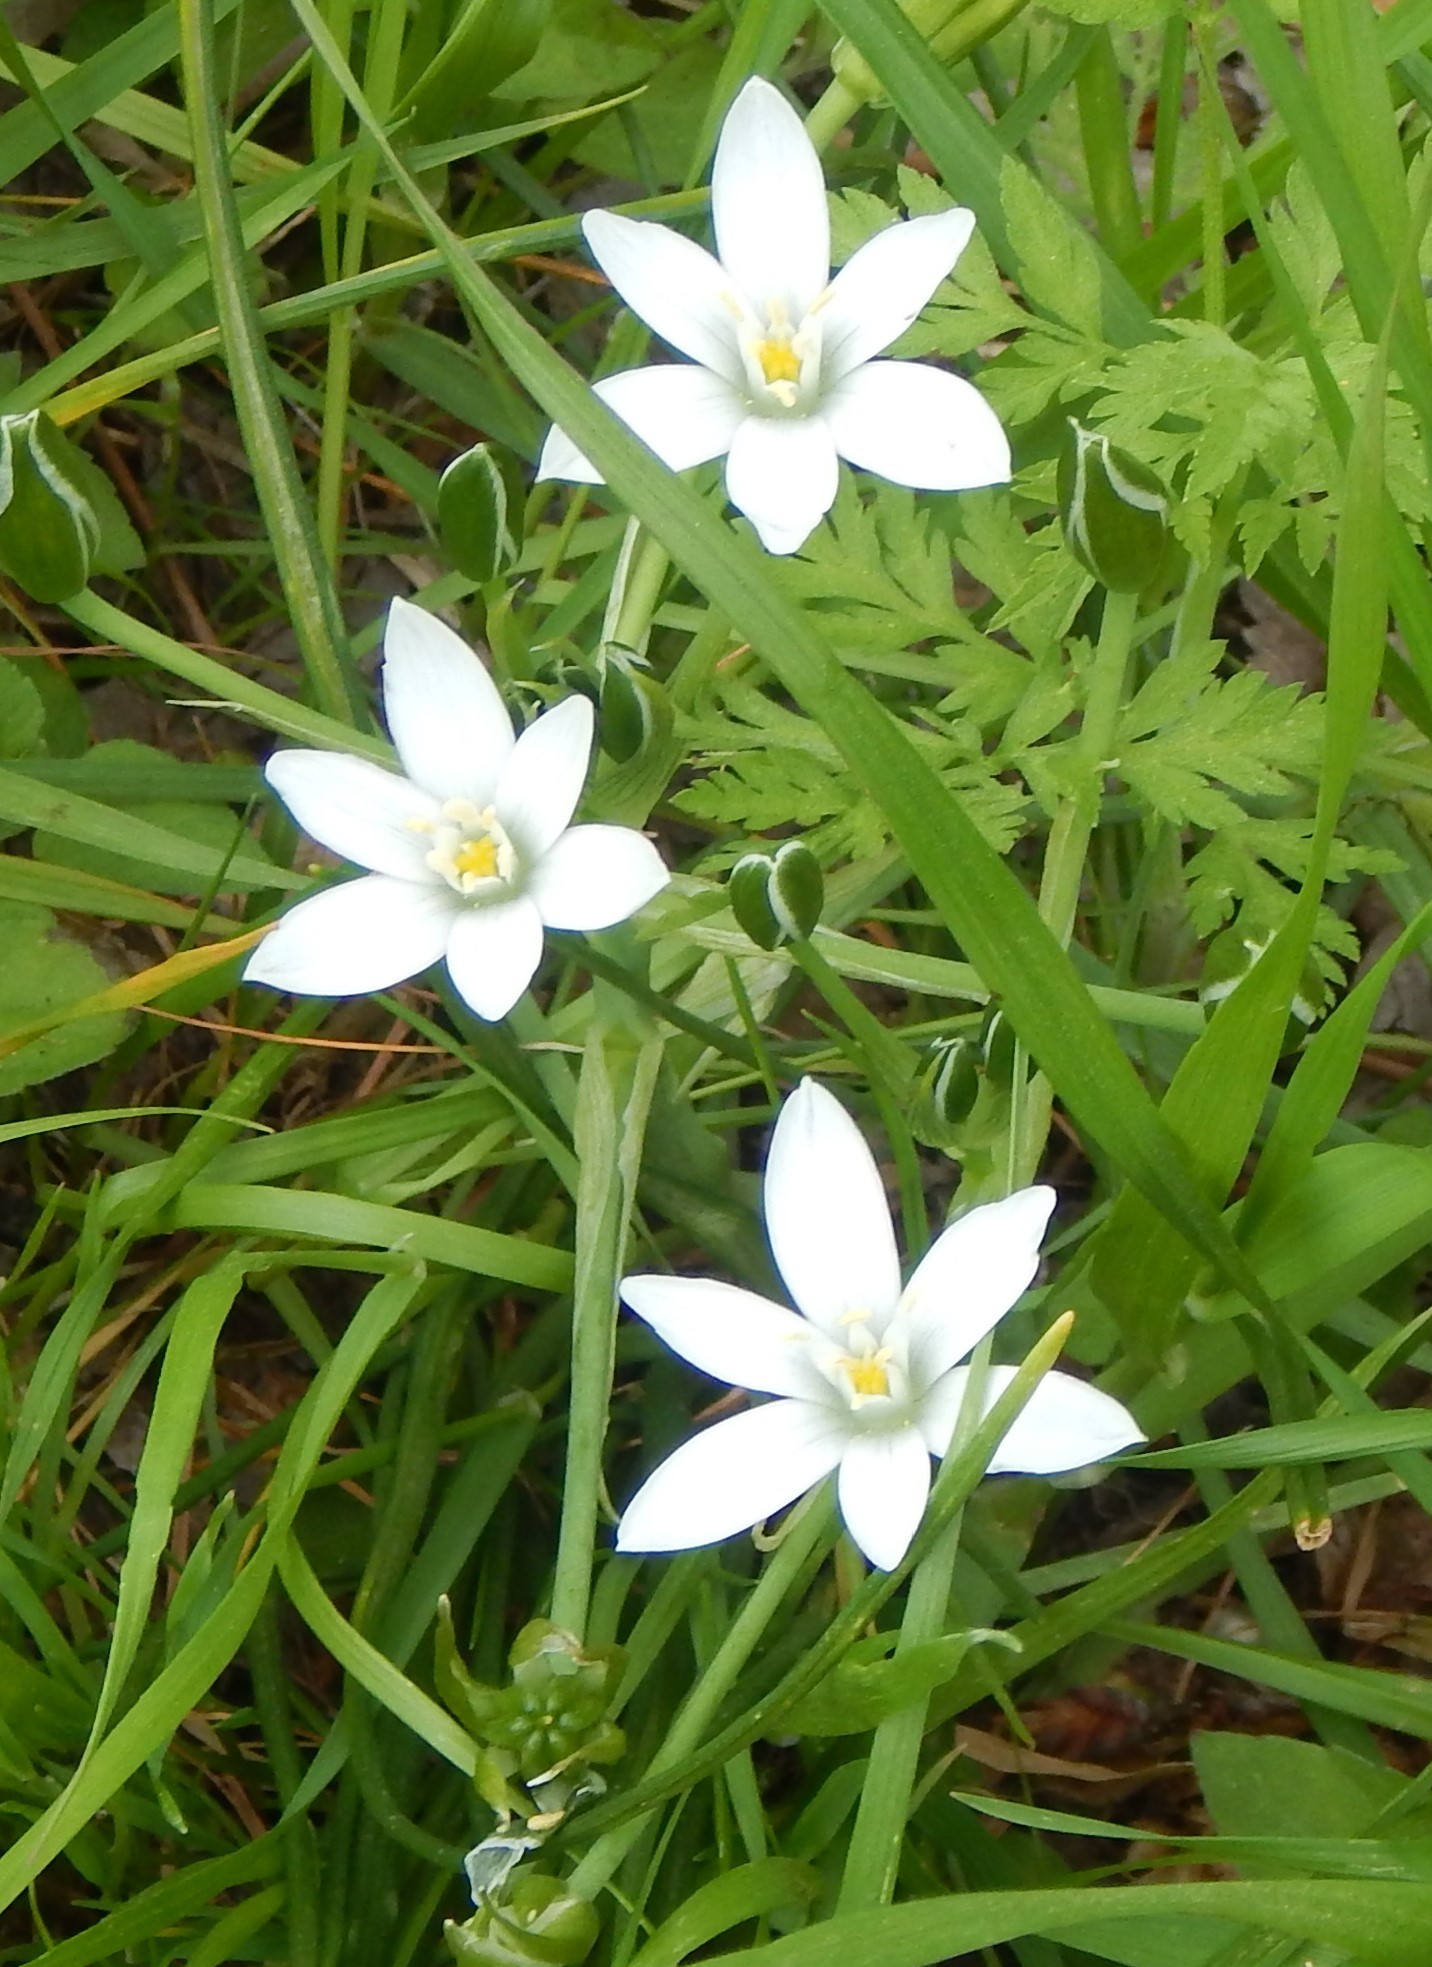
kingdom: Plantae
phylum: Tracheophyta
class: Liliopsida
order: Asparagales
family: Asparagaceae
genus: Ornithogalum
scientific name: Ornithogalum umbellatum
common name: Garden star-of-bethlehem
